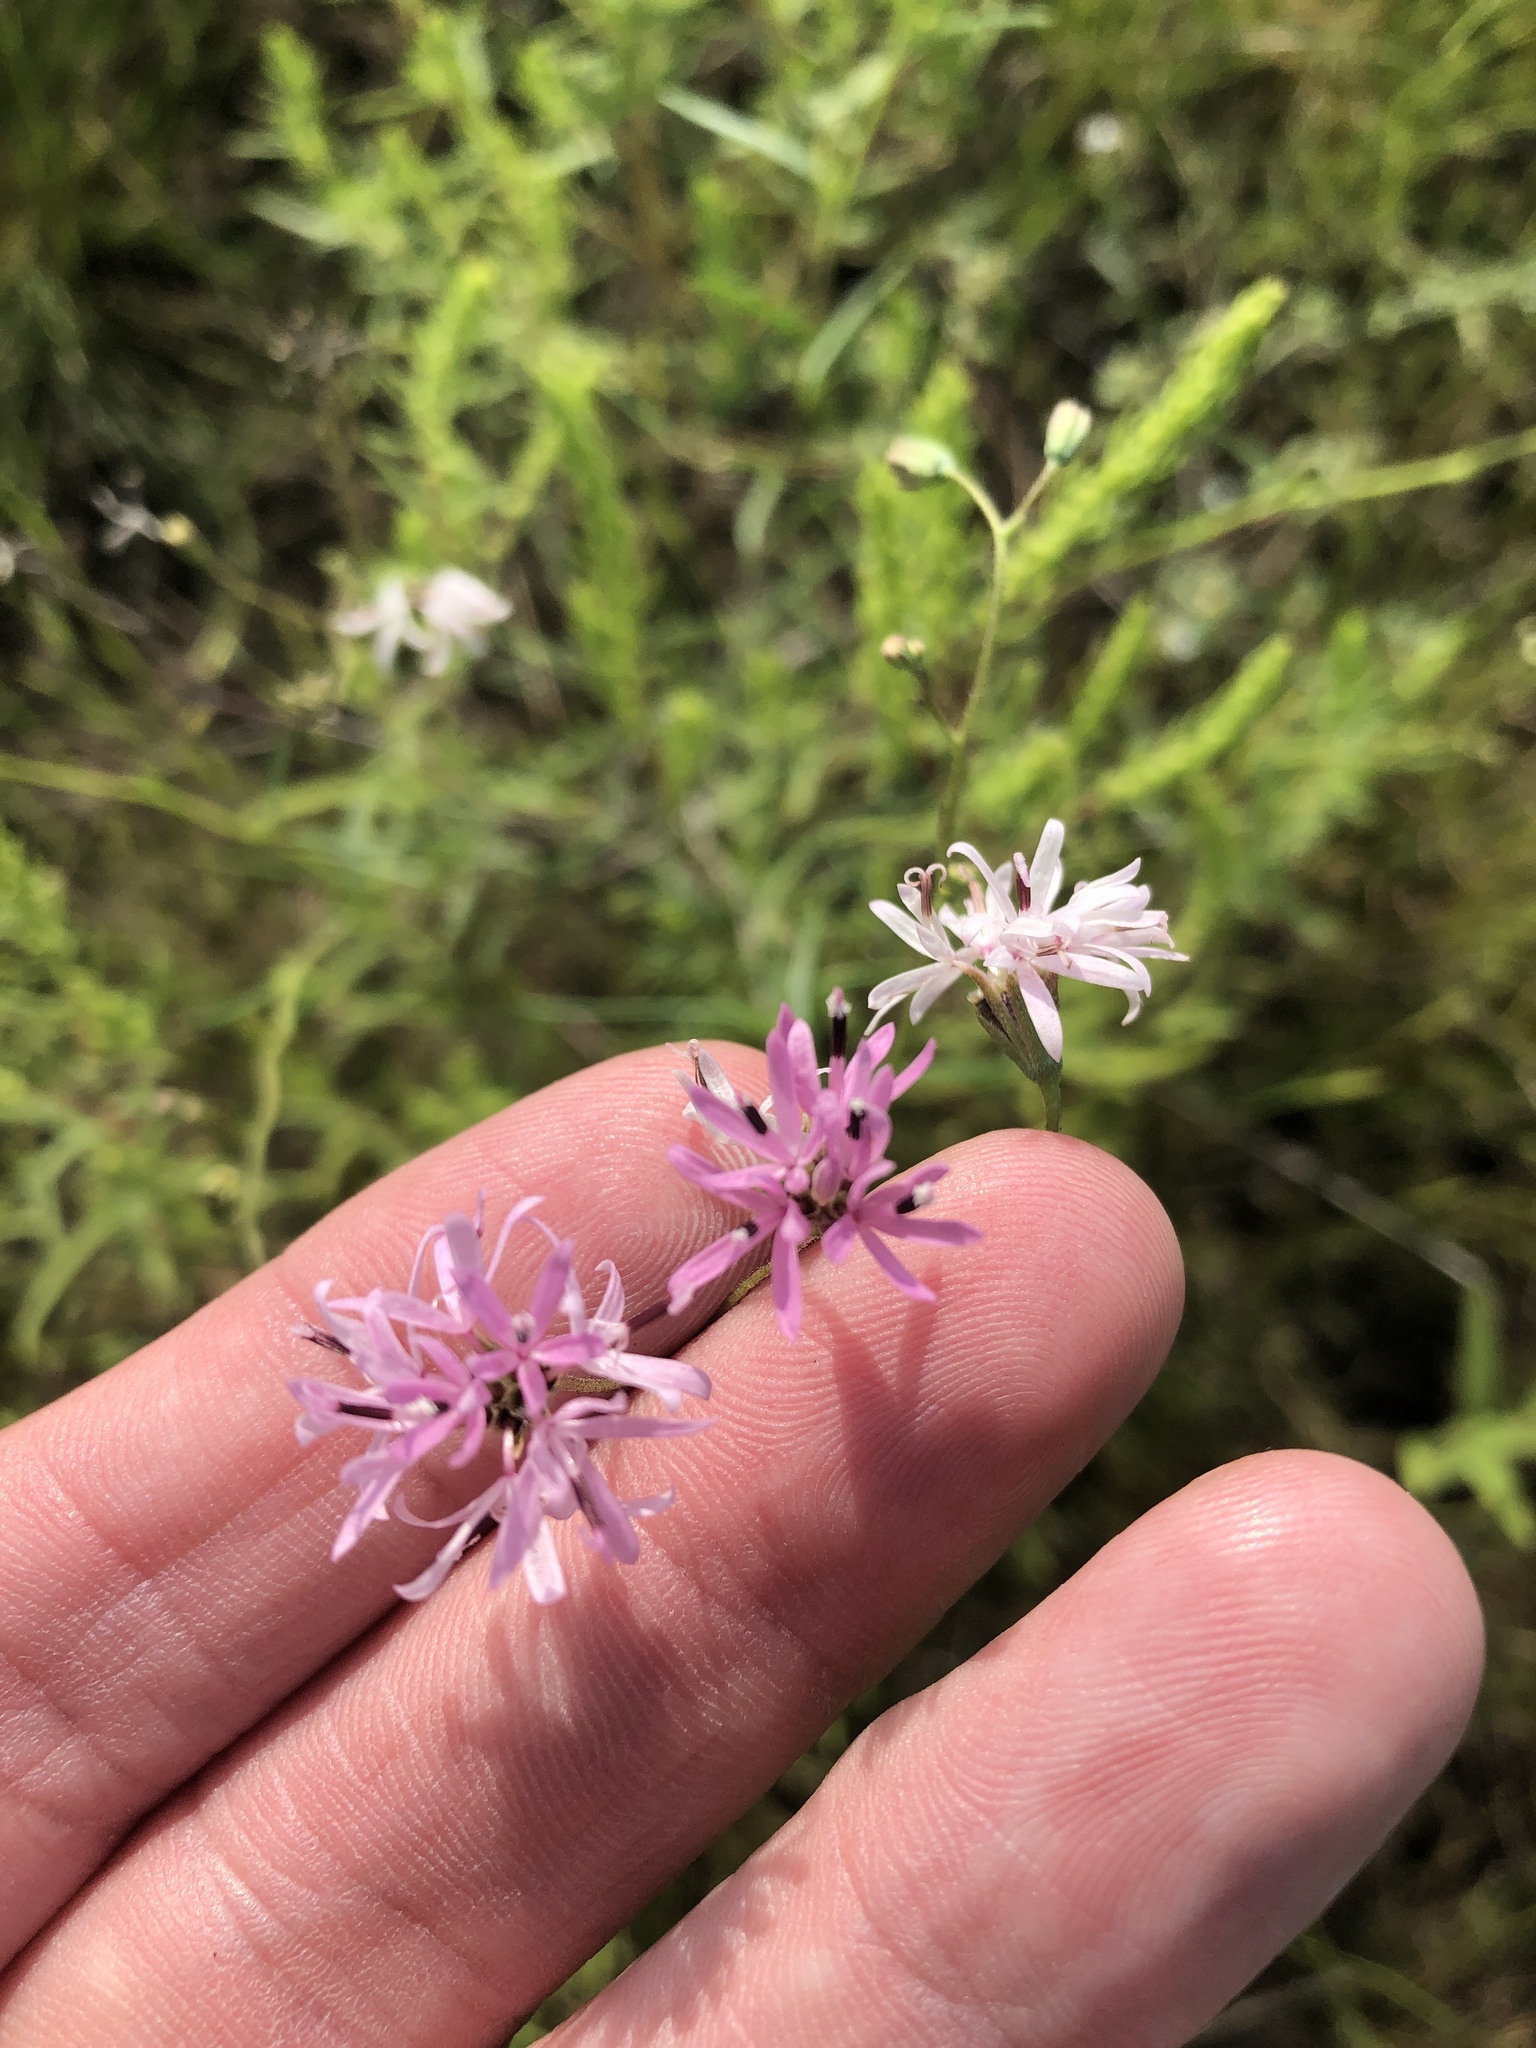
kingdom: Plantae
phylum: Tracheophyta
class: Magnoliopsida
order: Asterales
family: Asteraceae
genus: Palafoxia
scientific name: Palafoxia callosa
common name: Small palafox
